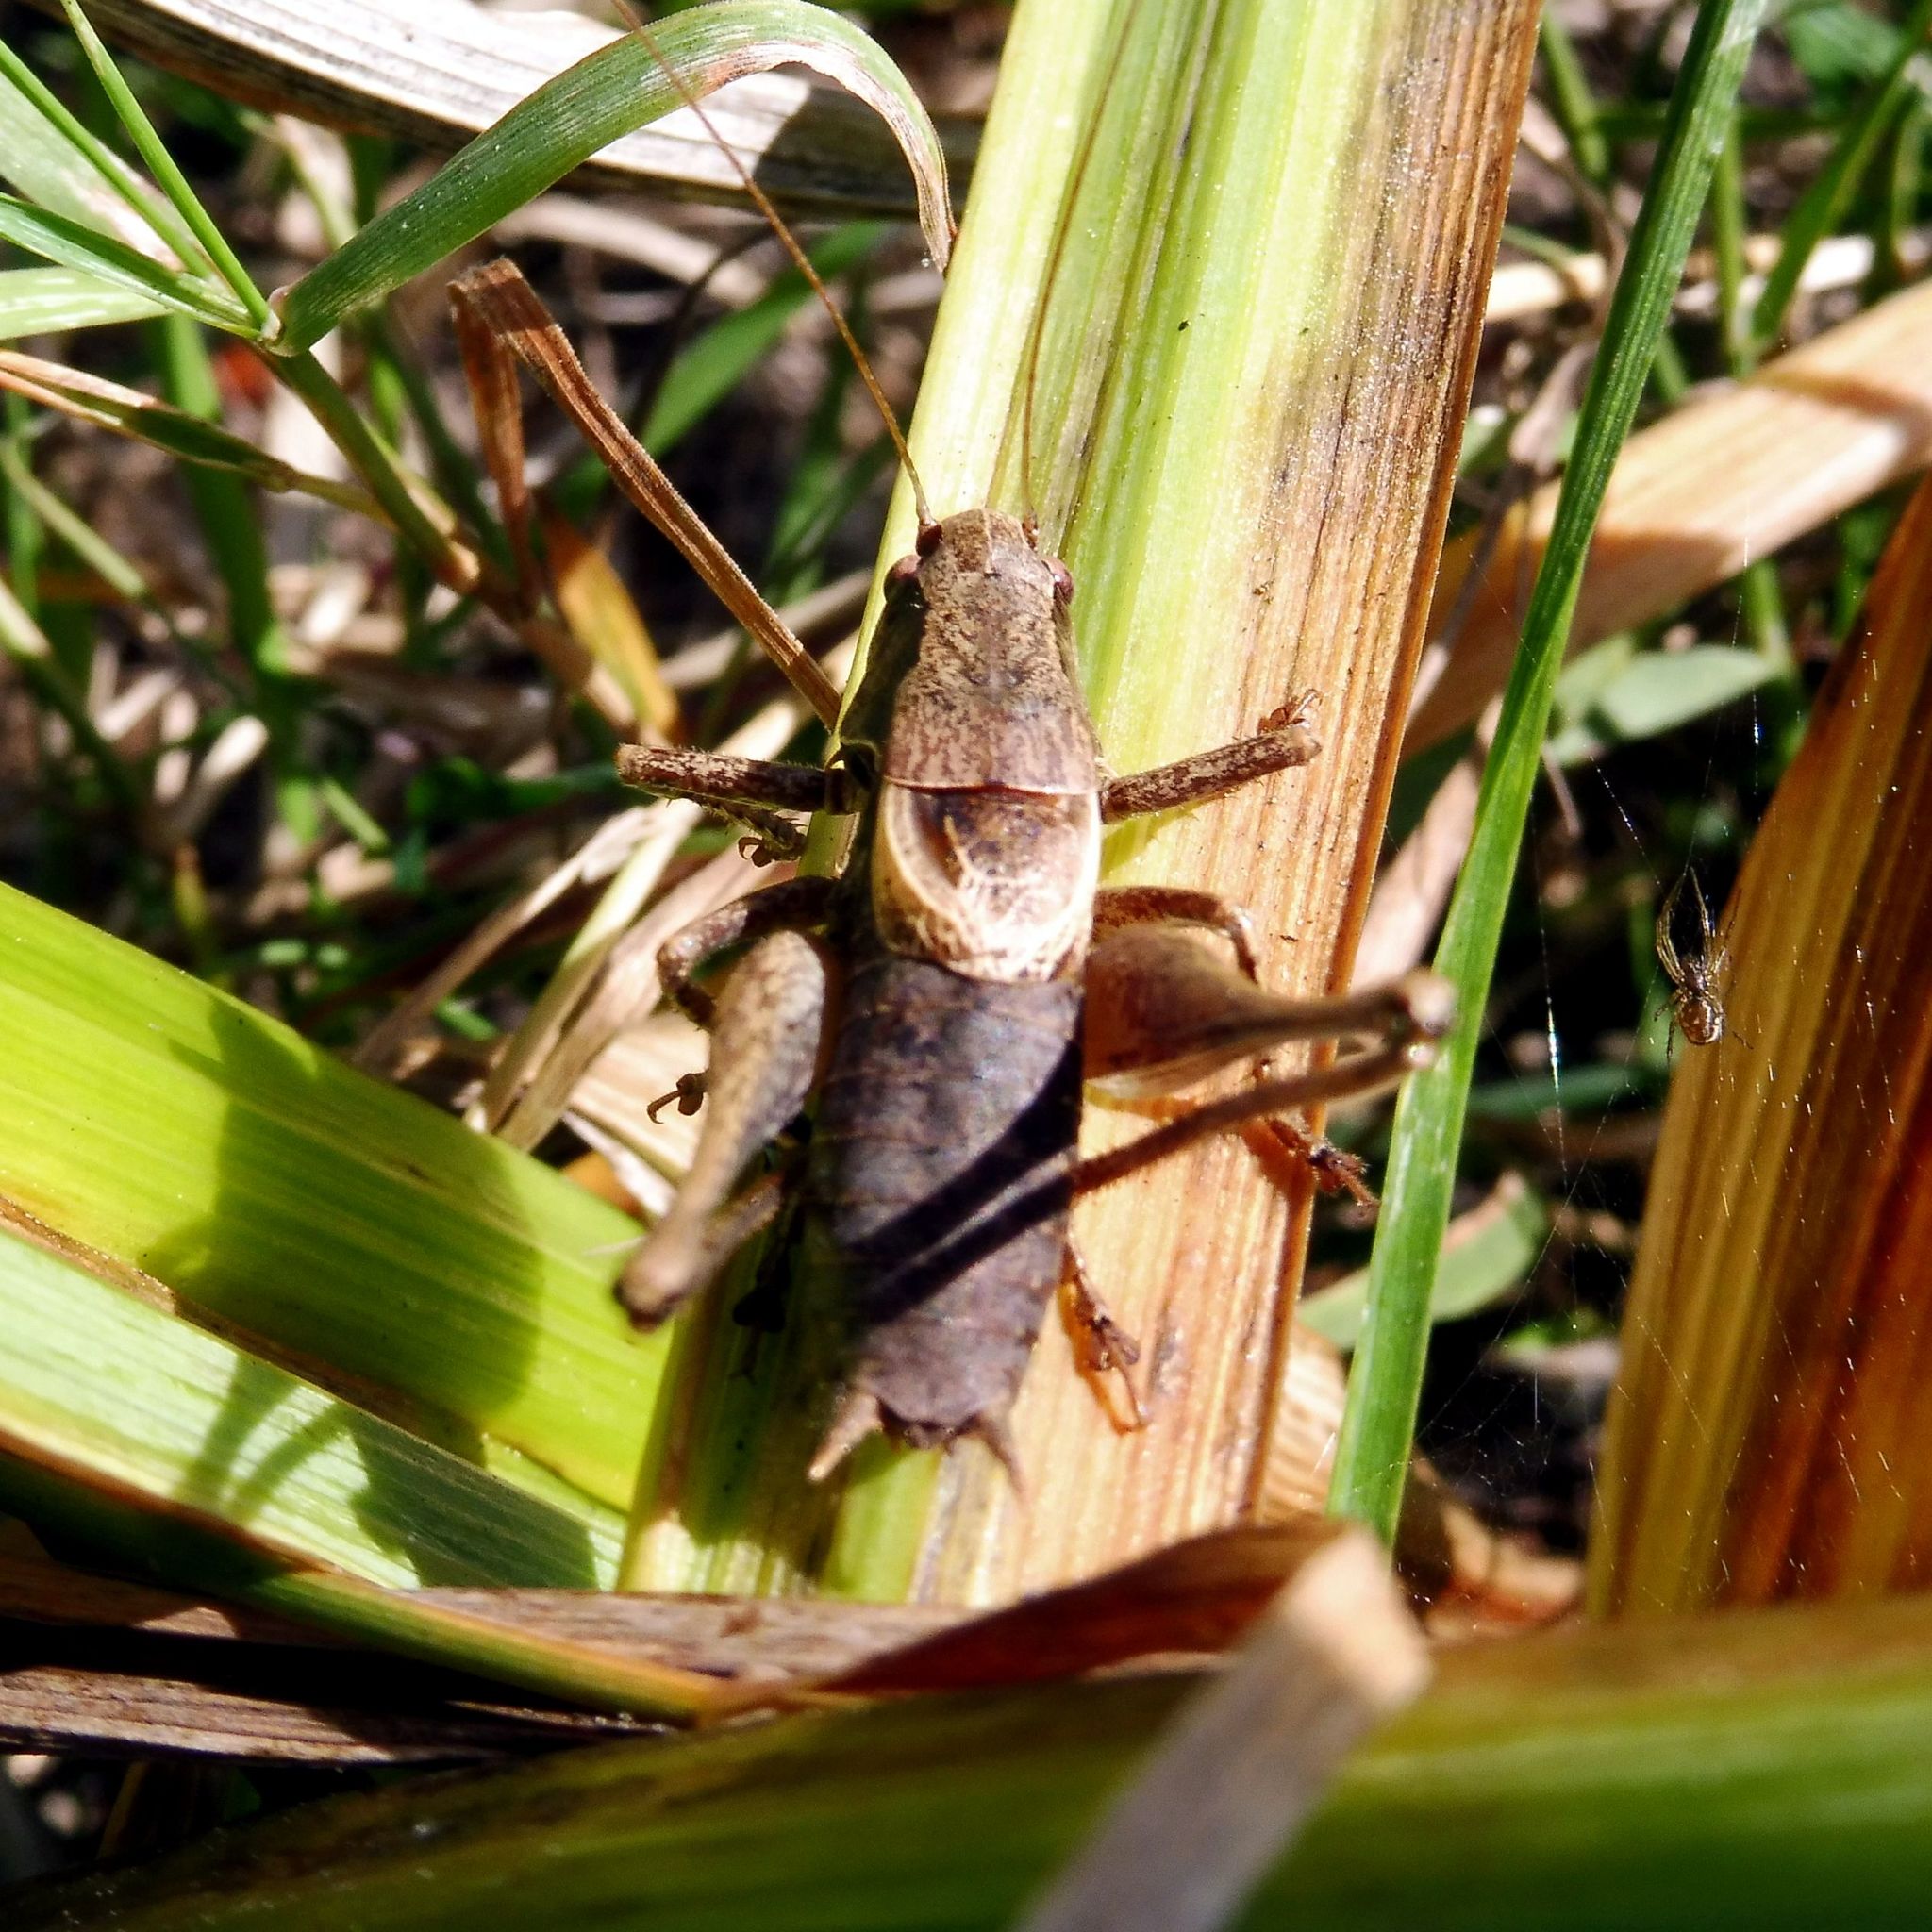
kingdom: Animalia
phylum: Arthropoda
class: Insecta
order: Orthoptera
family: Tettigoniidae
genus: Pholidoptera
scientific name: Pholidoptera griseoaptera
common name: Dark bush-cricket
